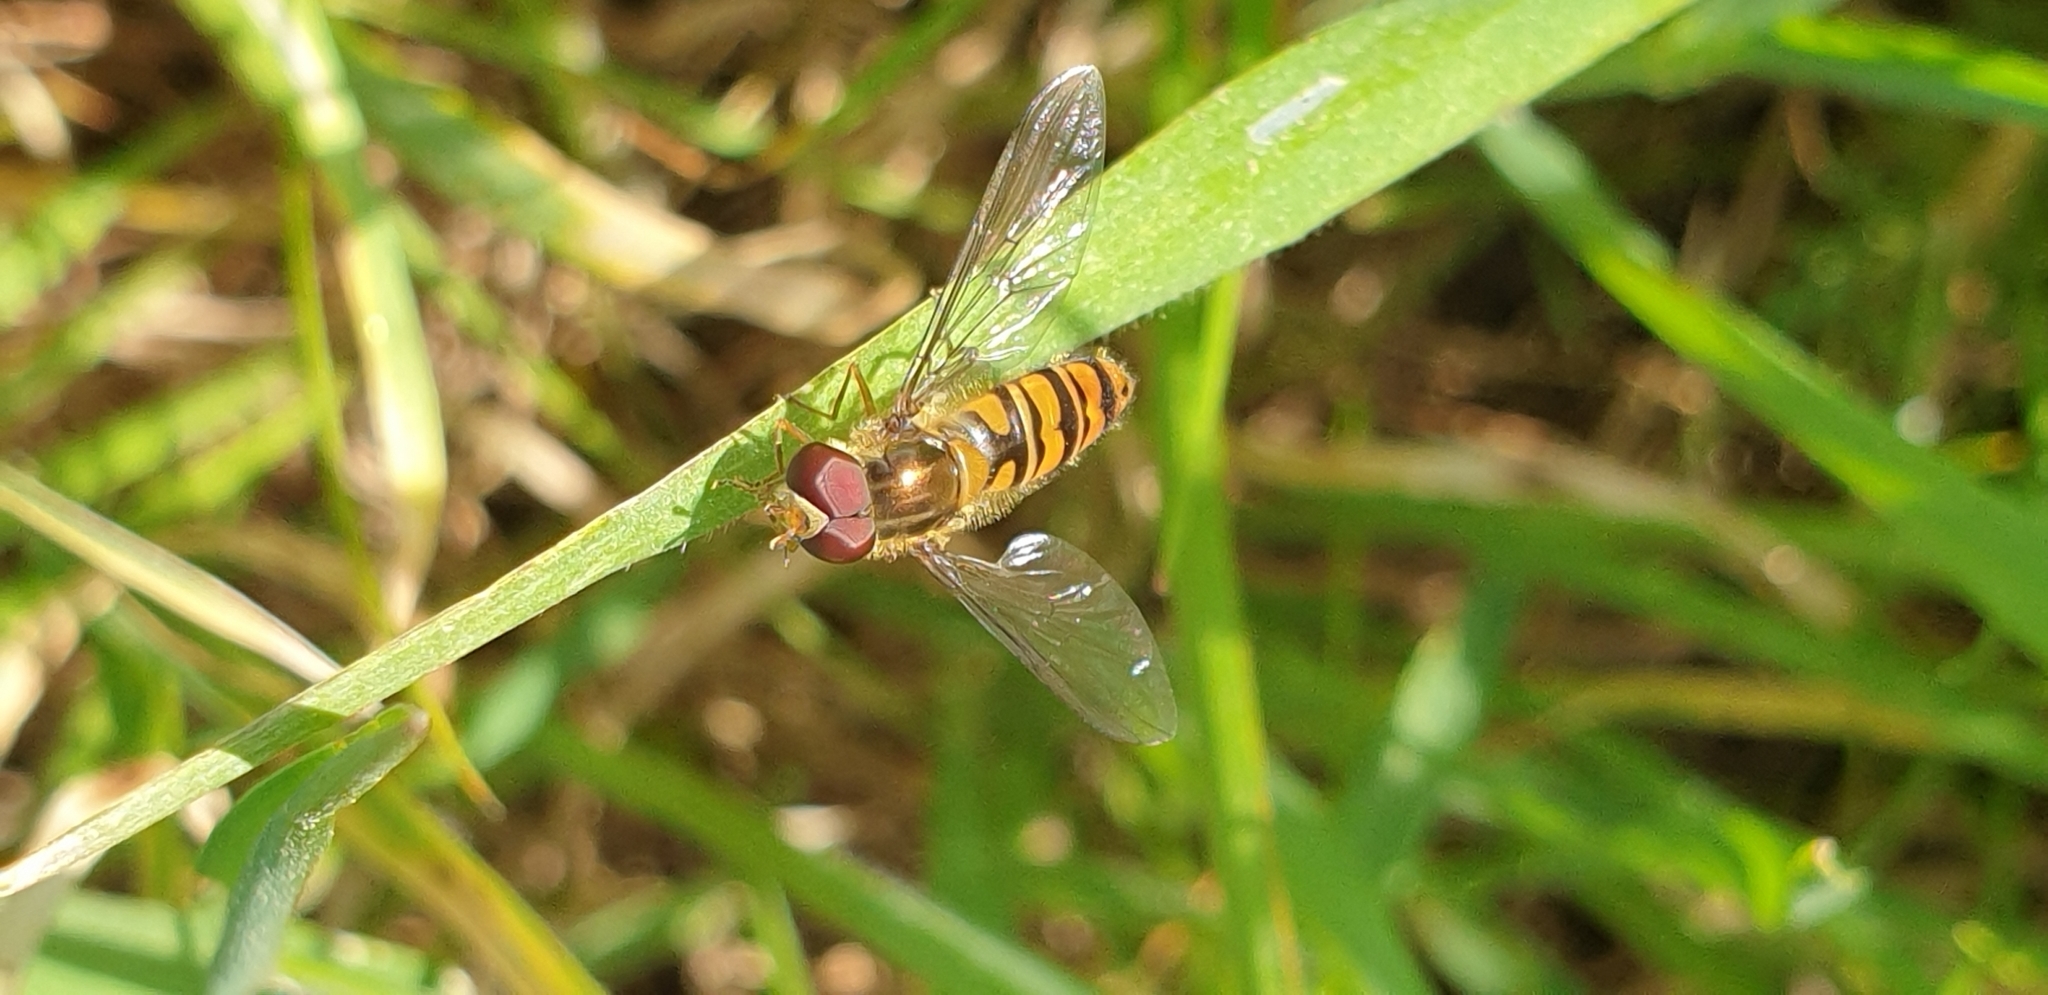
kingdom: Animalia
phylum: Arthropoda
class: Insecta
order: Diptera
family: Syrphidae
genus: Episyrphus
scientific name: Episyrphus balteatus
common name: Marmalade hoverfly
